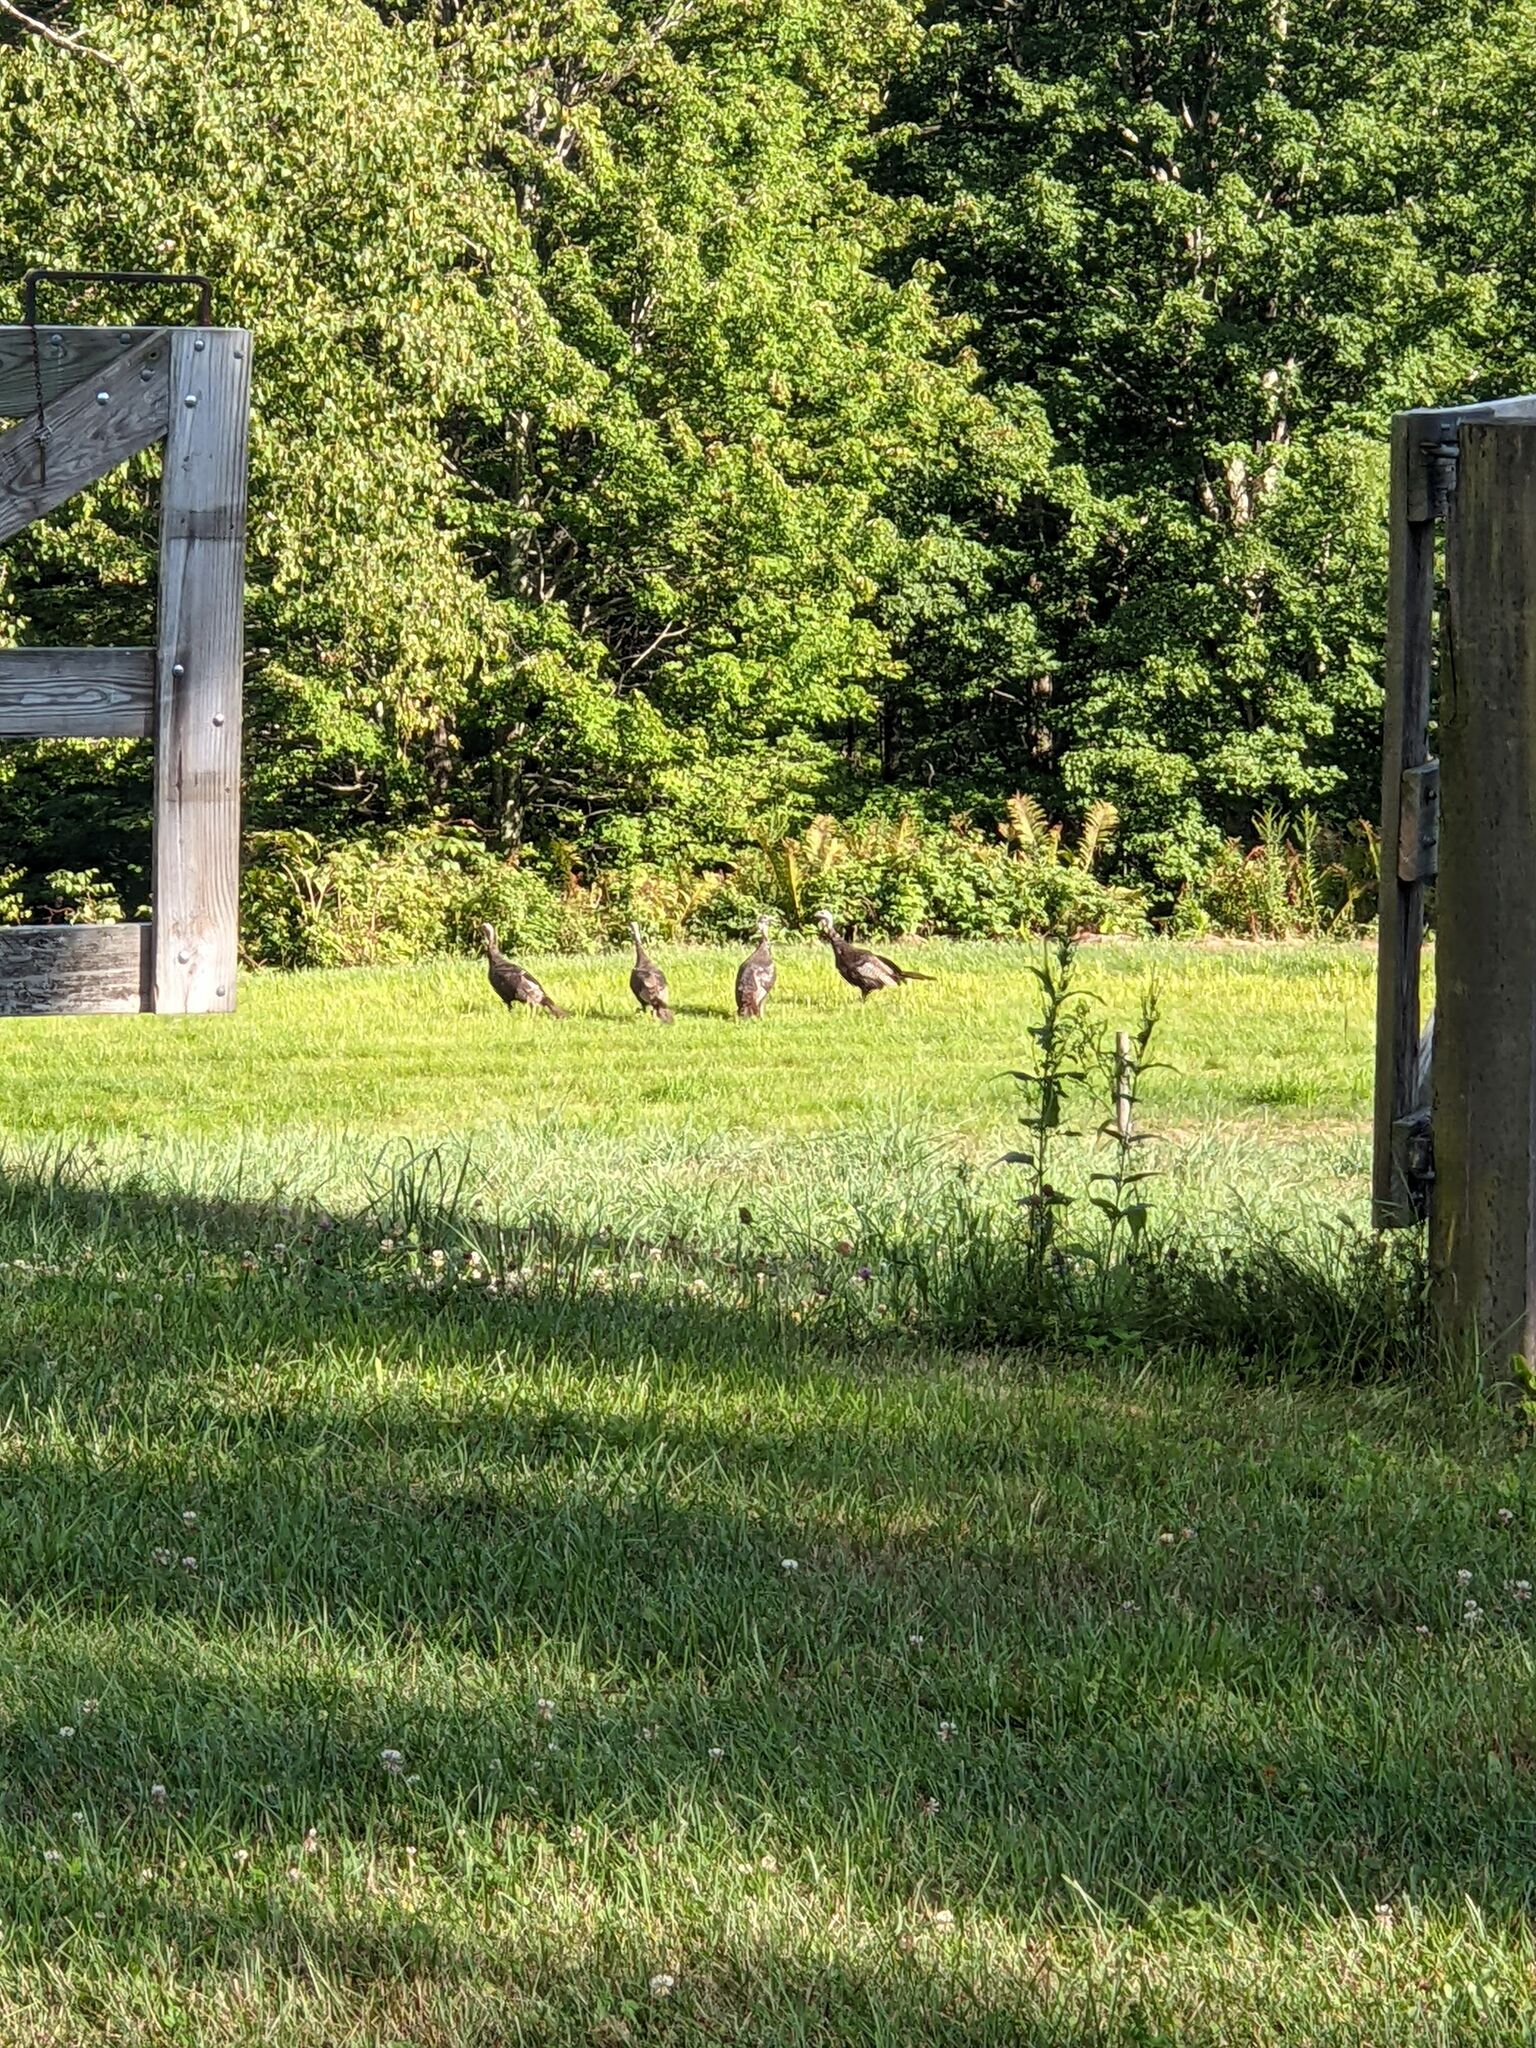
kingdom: Animalia
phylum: Chordata
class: Aves
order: Galliformes
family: Phasianidae
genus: Meleagris
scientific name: Meleagris gallopavo
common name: Wild turkey
